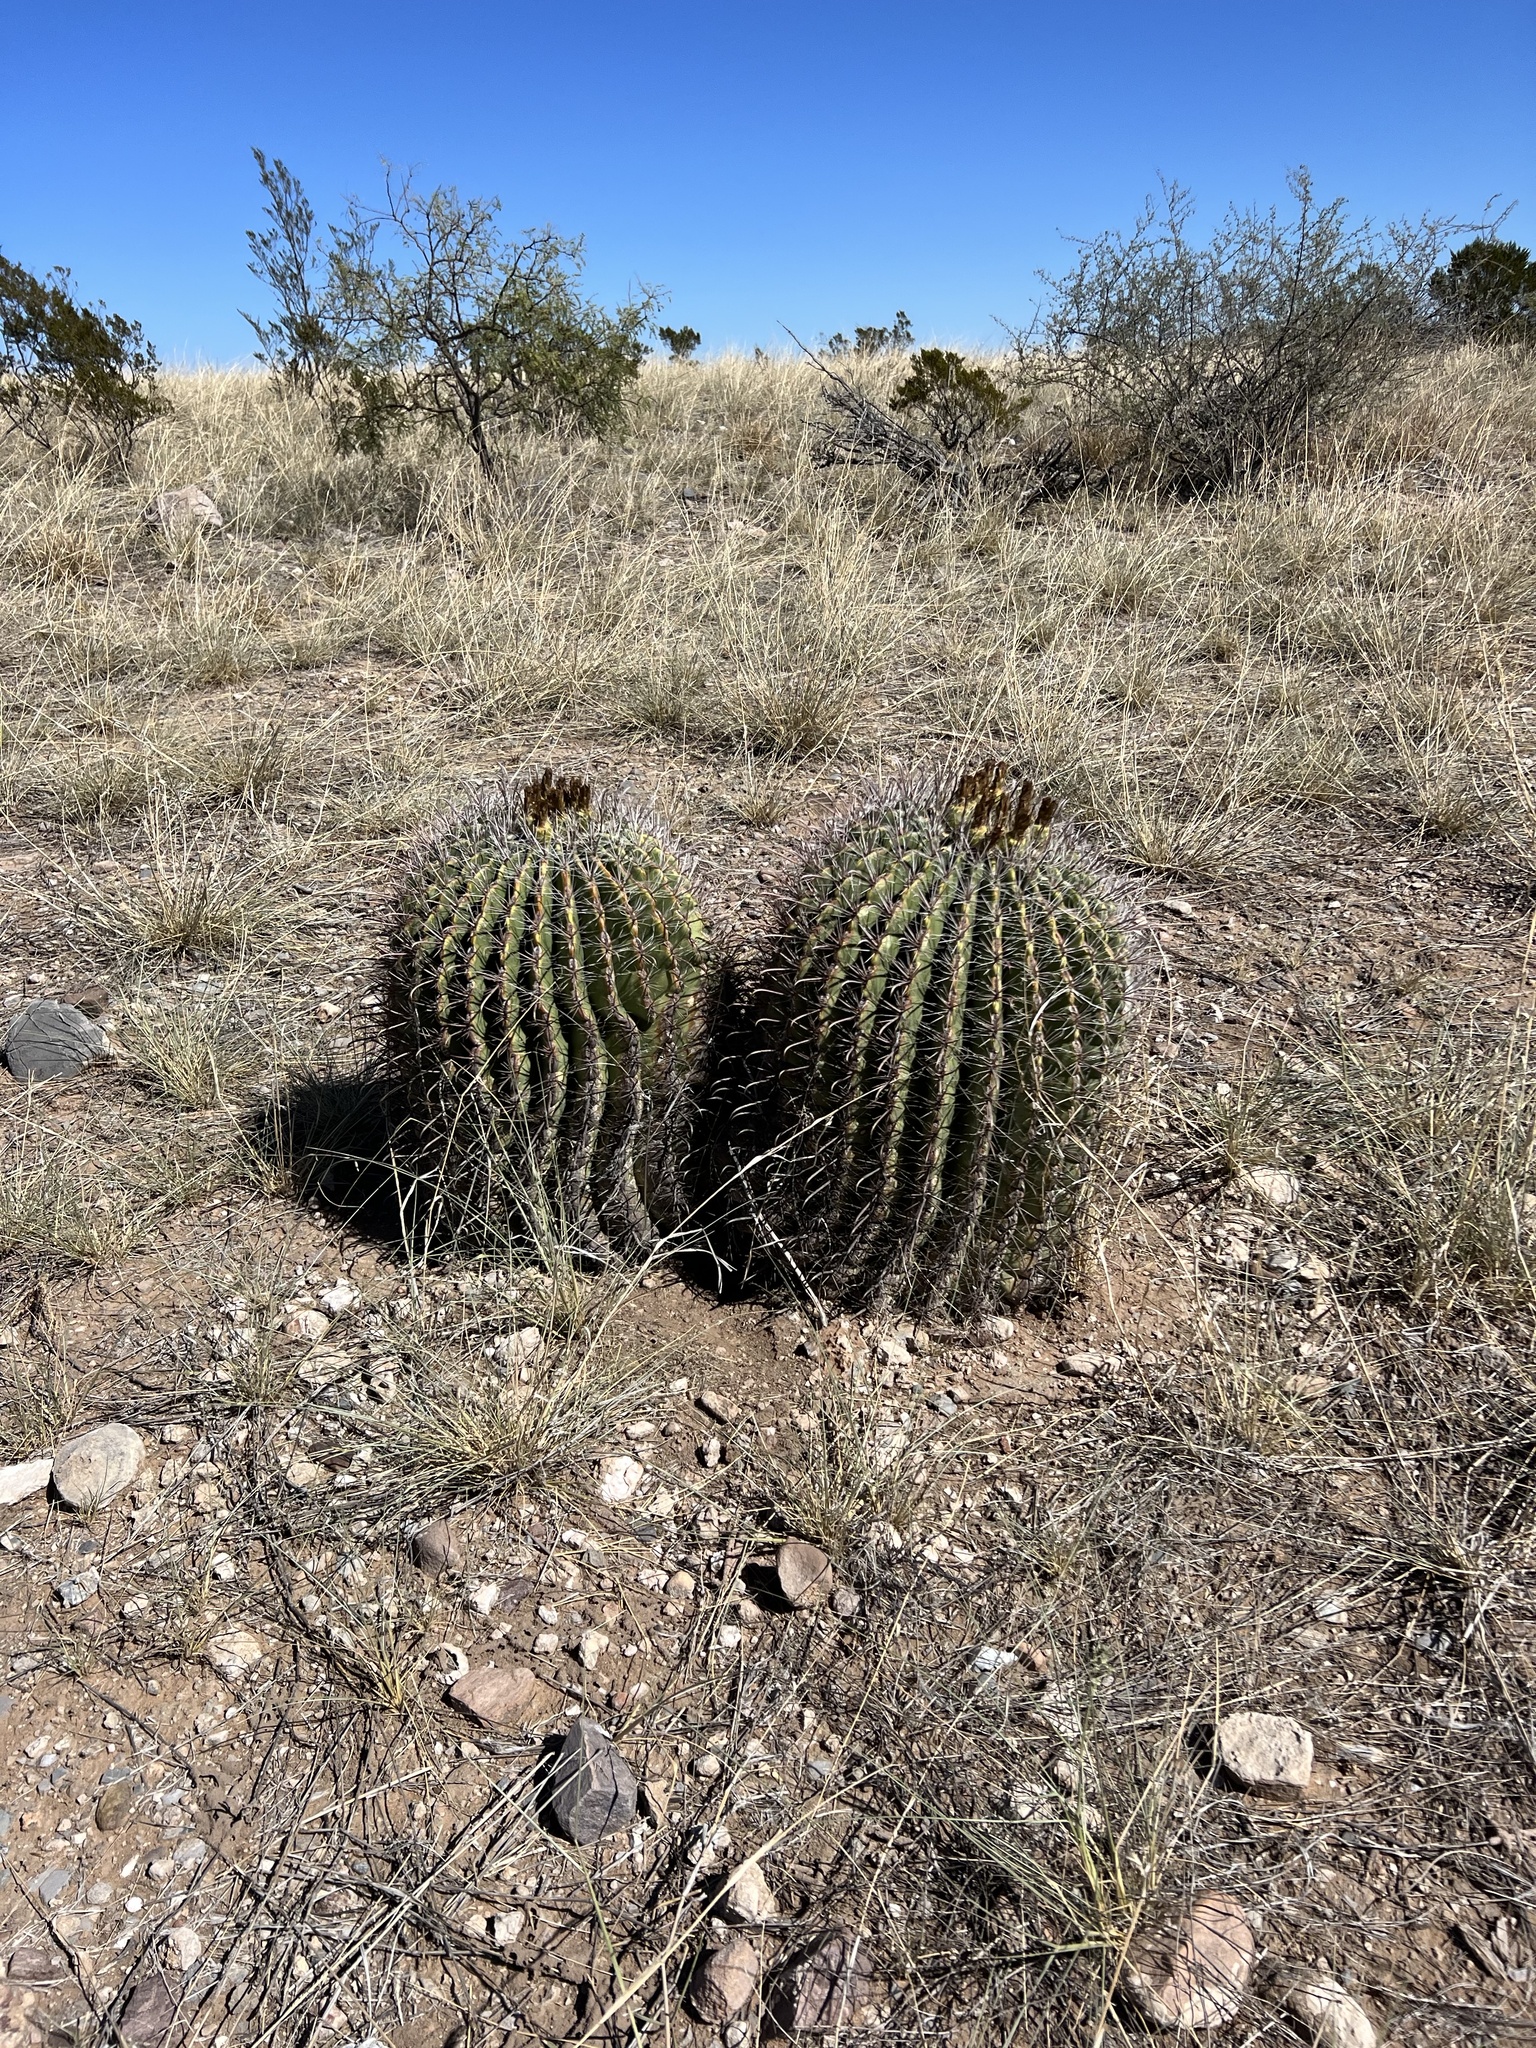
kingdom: Plantae
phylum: Tracheophyta
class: Magnoliopsida
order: Caryophyllales
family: Cactaceae
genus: Ferocactus
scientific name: Ferocactus wislizeni
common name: Candy barrel cactus
